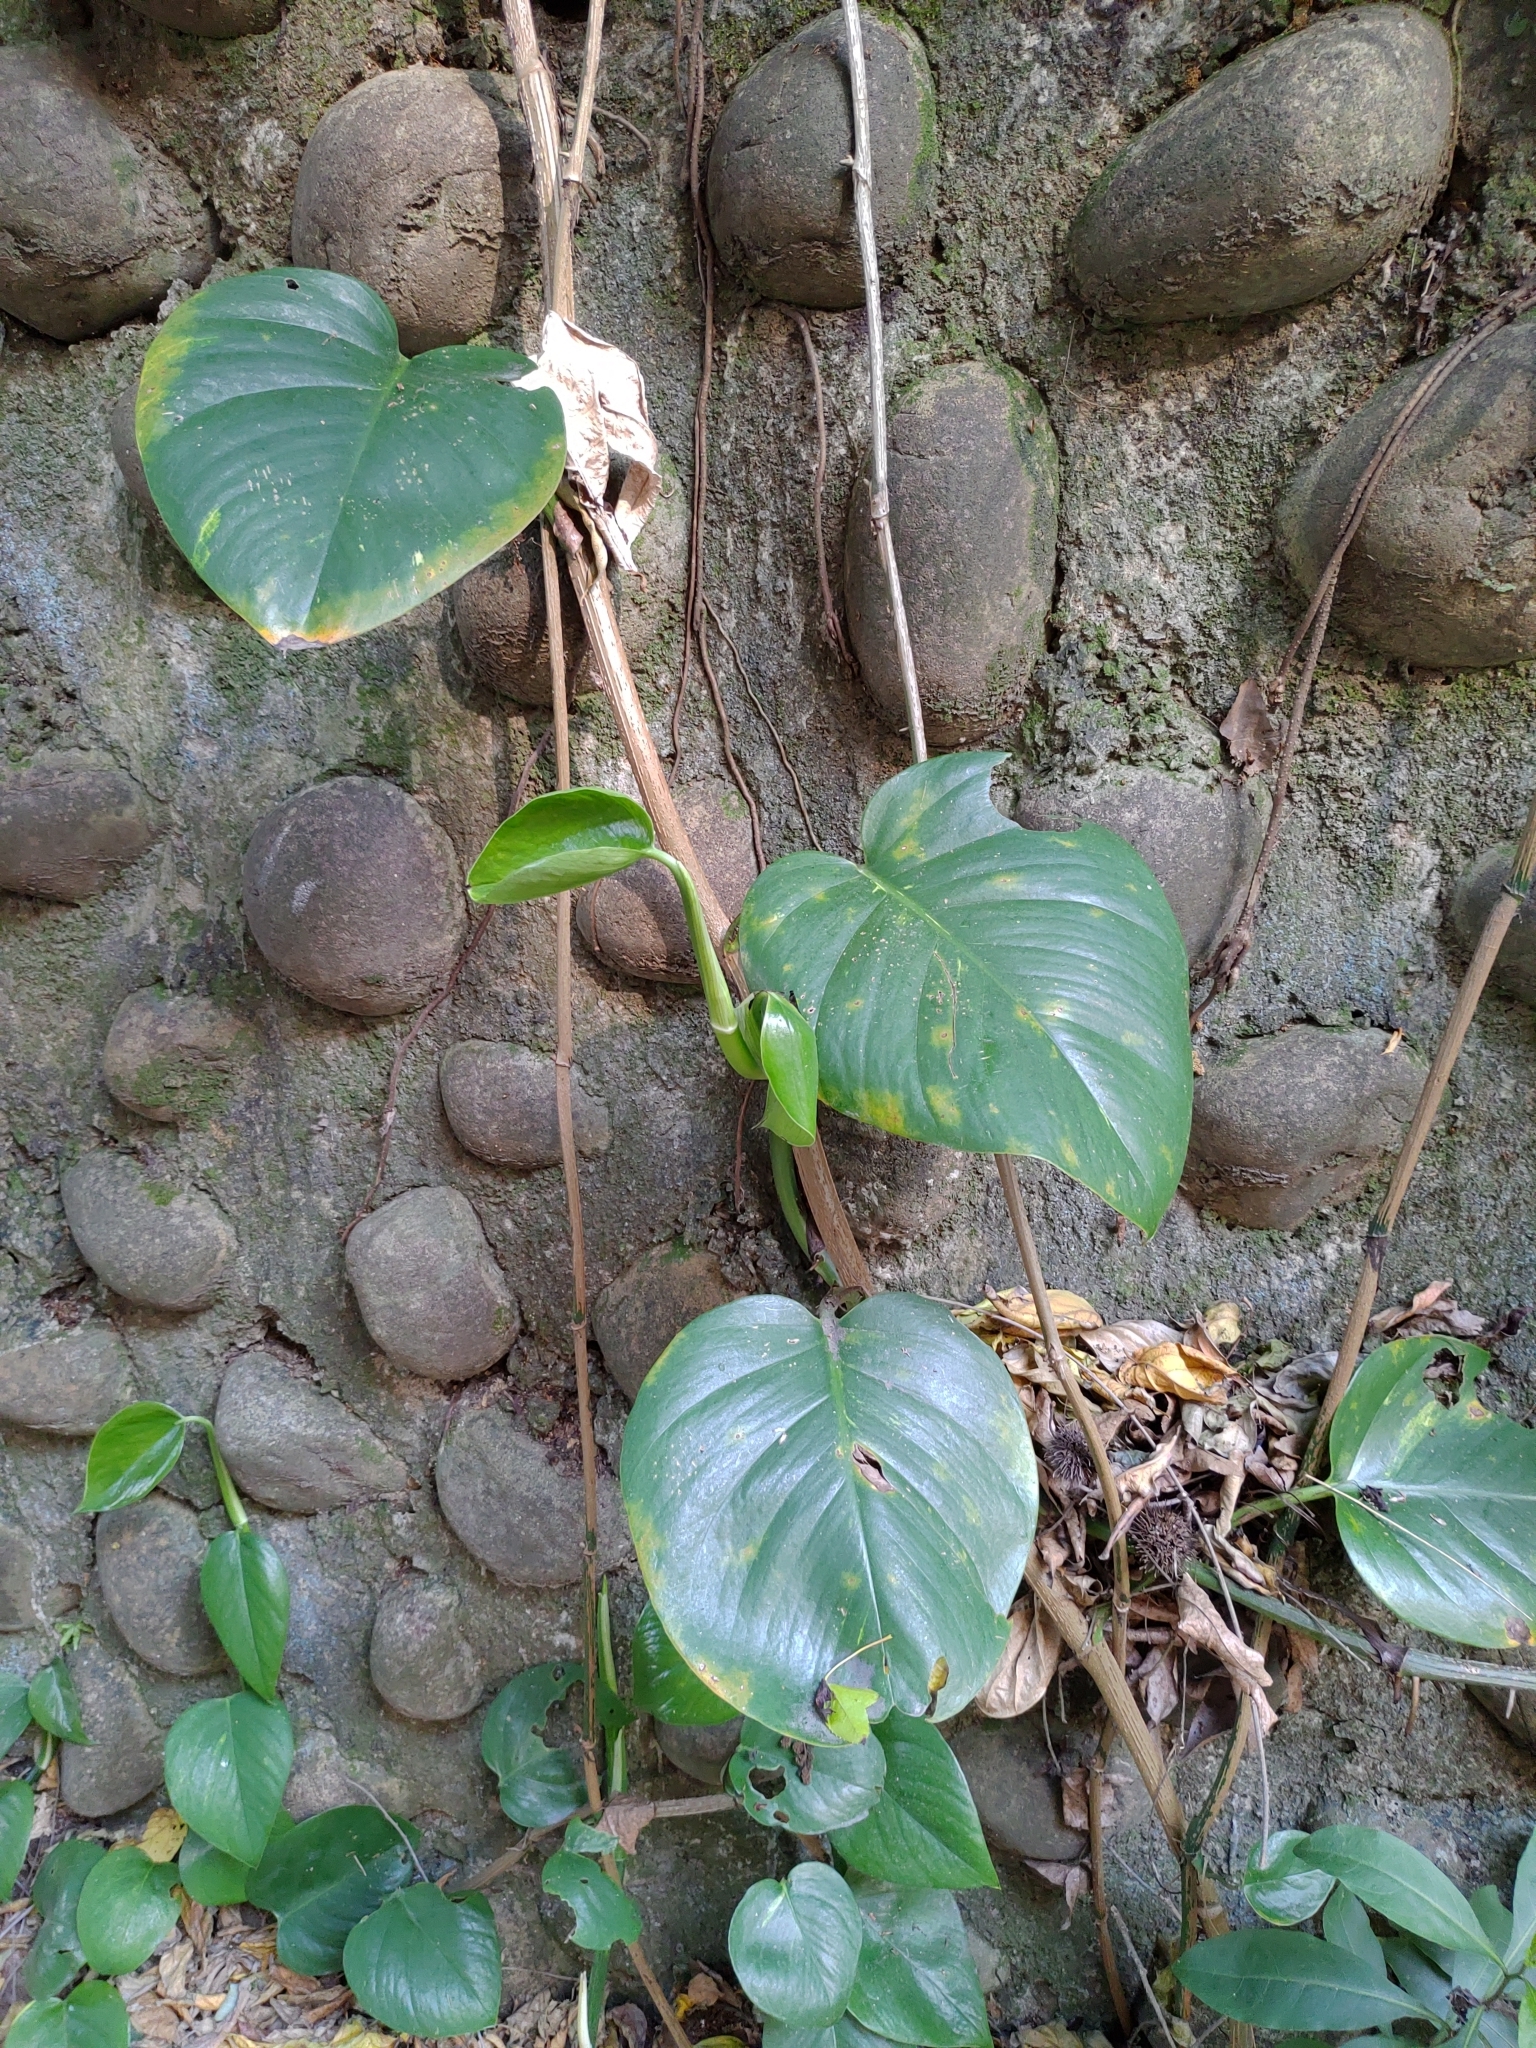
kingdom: Plantae
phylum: Tracheophyta
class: Liliopsida
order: Alismatales
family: Araceae
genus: Epipremnum
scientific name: Epipremnum aureum
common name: Golden hunter's-robe
